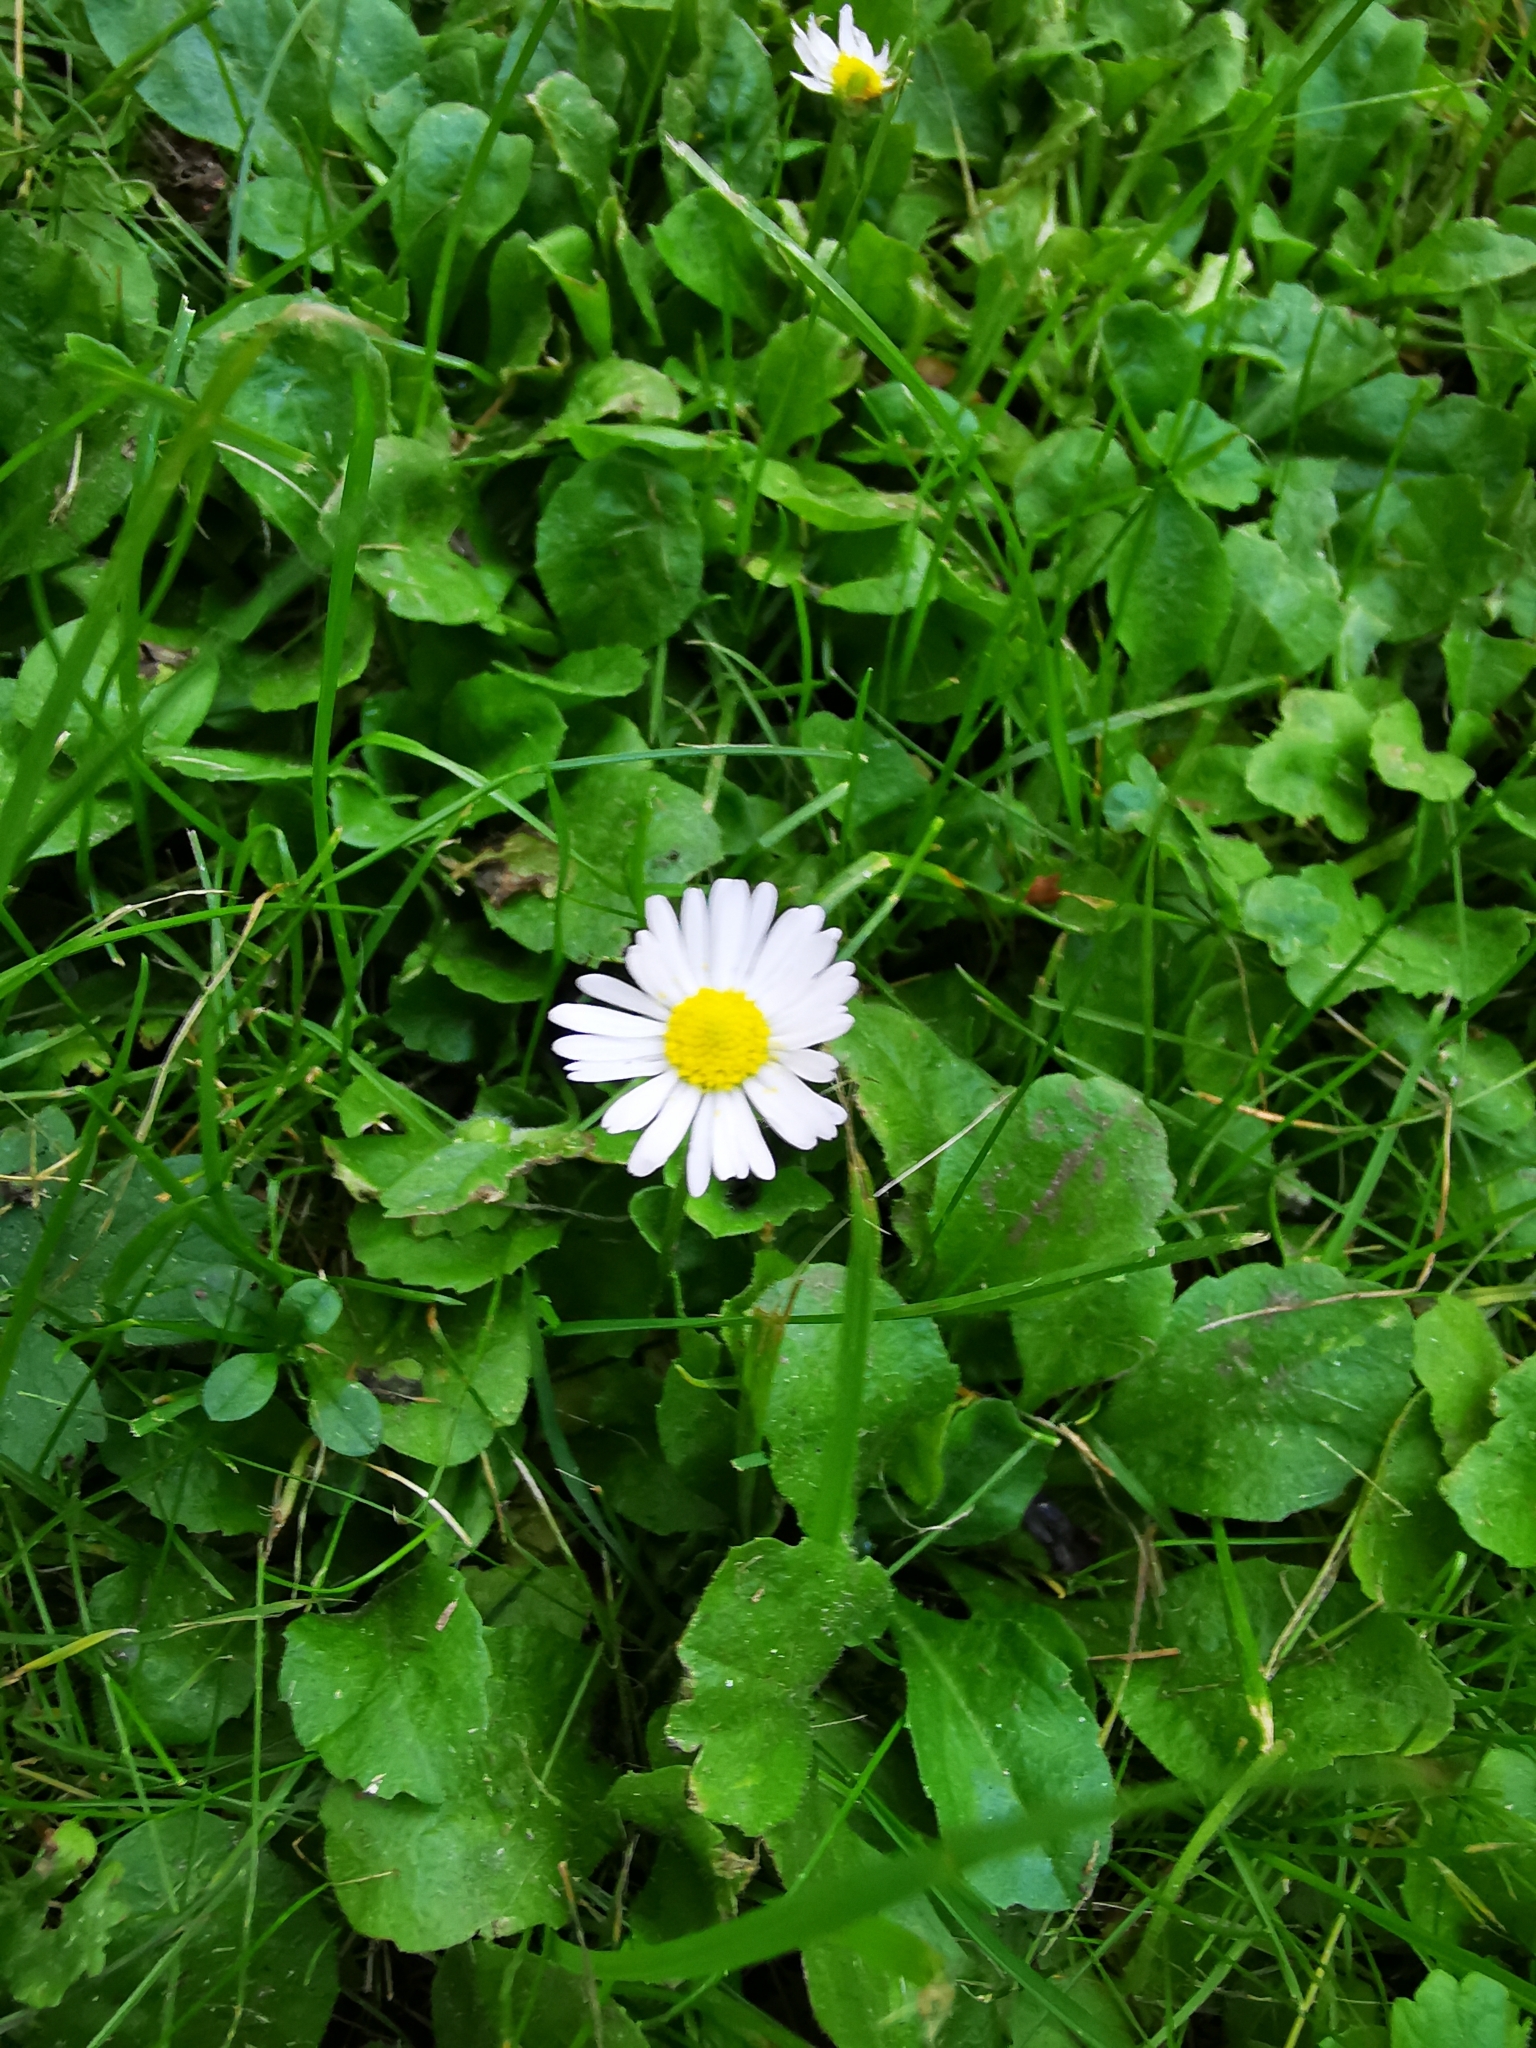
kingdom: Plantae
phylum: Tracheophyta
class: Magnoliopsida
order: Asterales
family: Asteraceae
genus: Bellis
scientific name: Bellis perennis
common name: Lawndaisy
